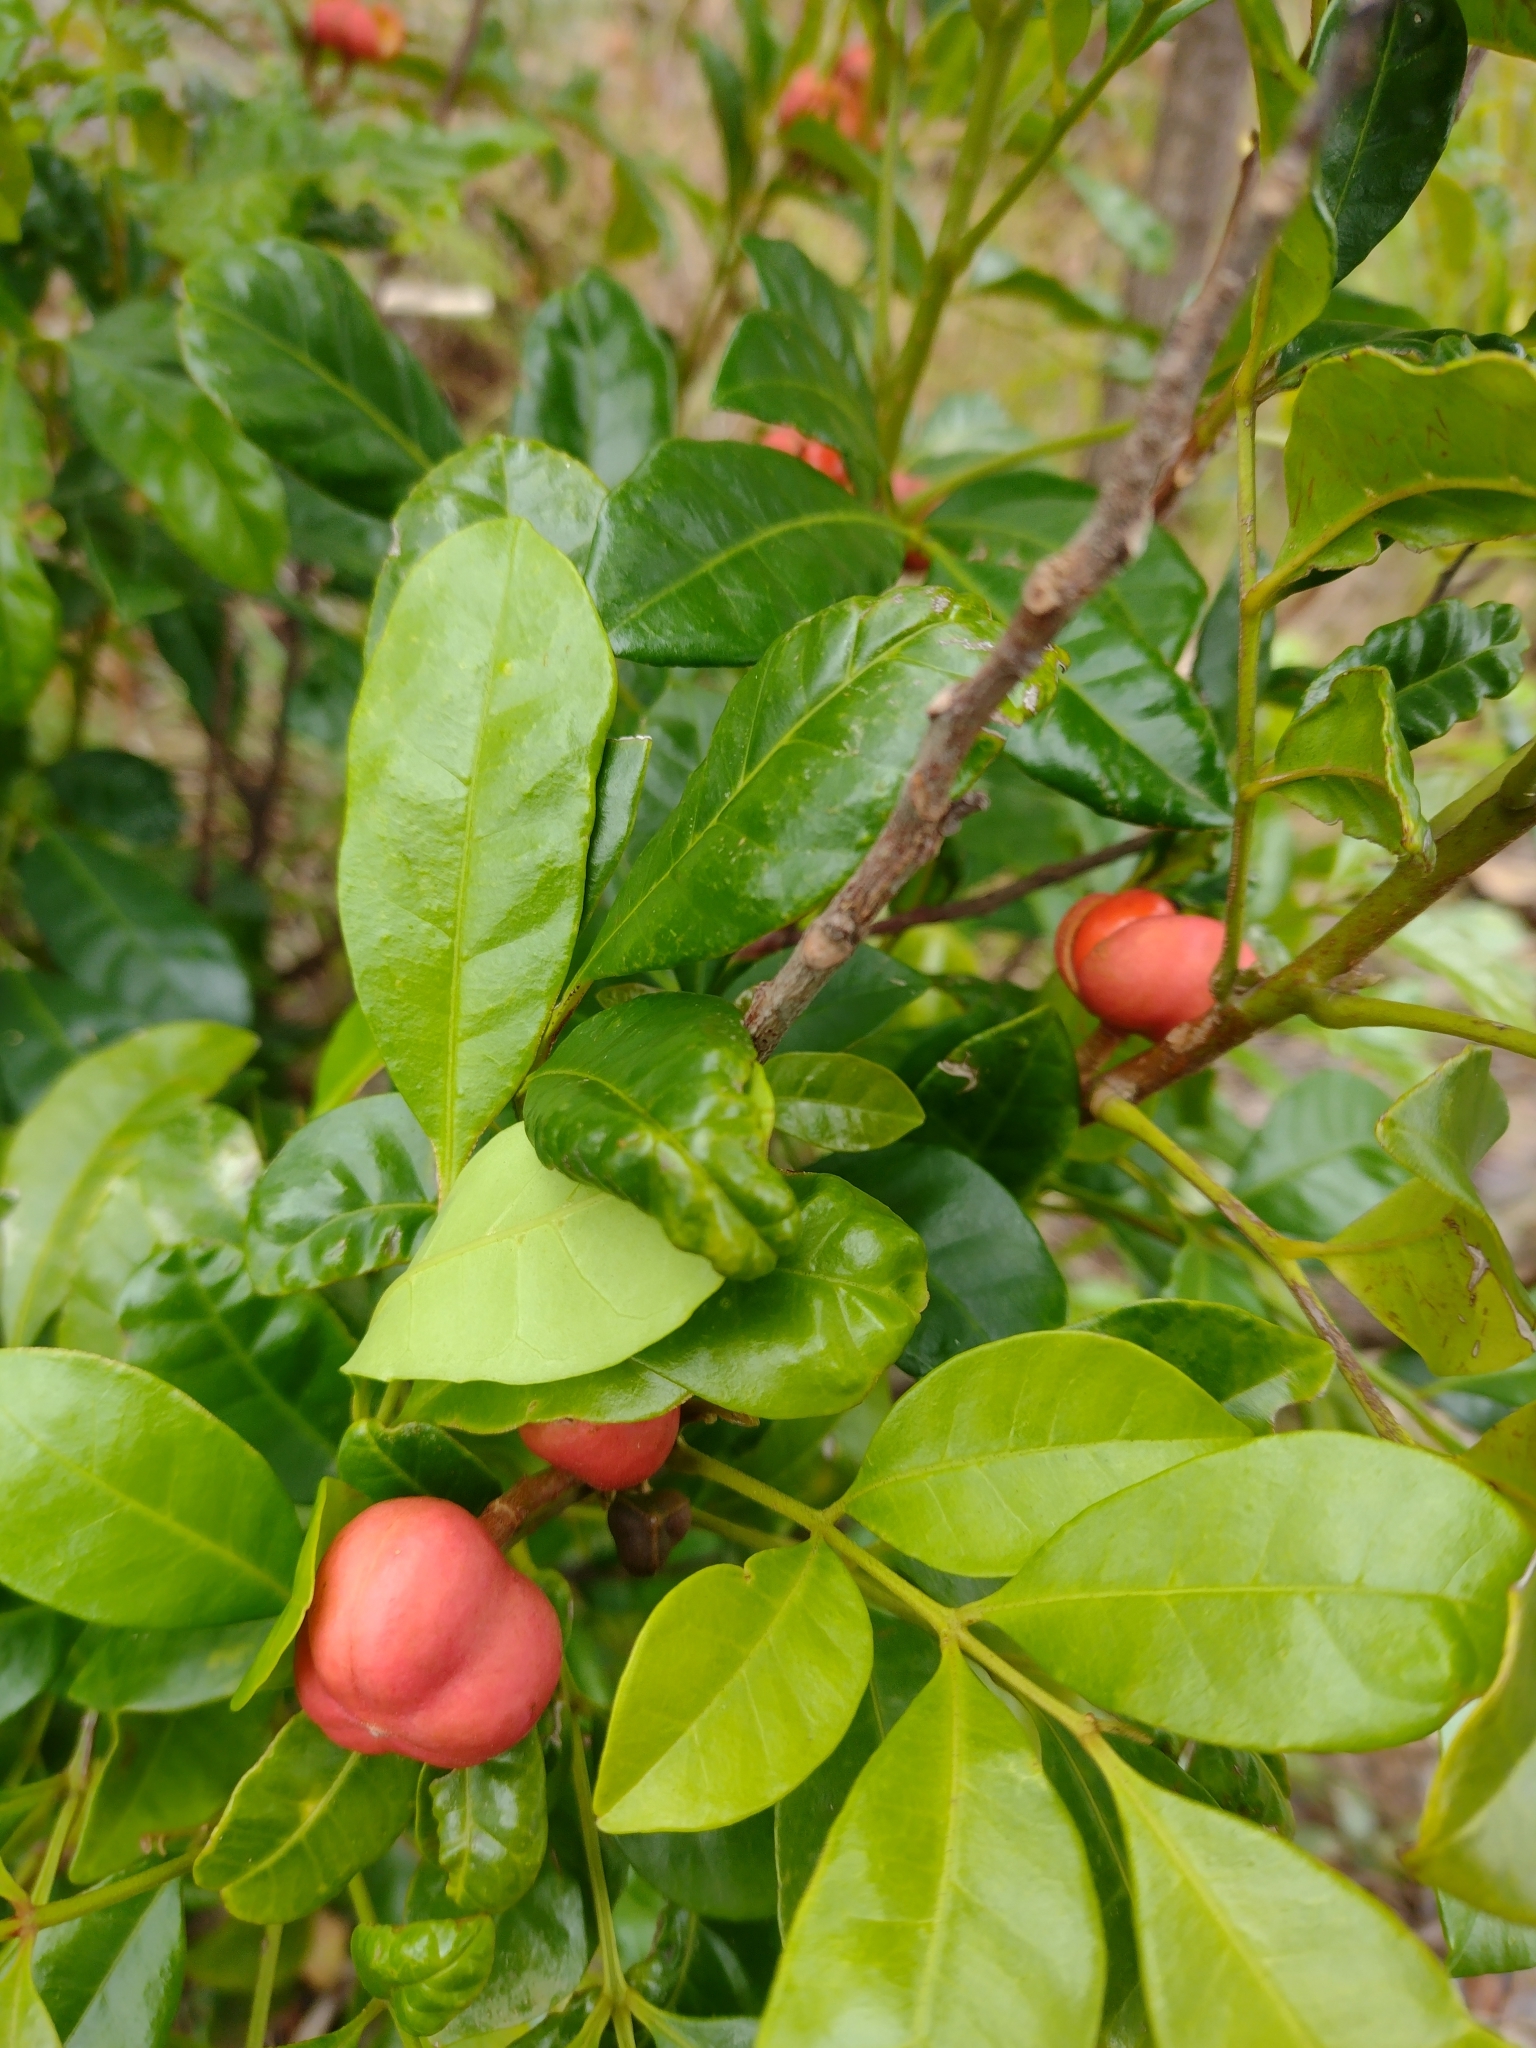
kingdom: Plantae
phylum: Tracheophyta
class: Magnoliopsida
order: Sapindales
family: Meliaceae
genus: Synoum
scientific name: Synoum glandulosum
